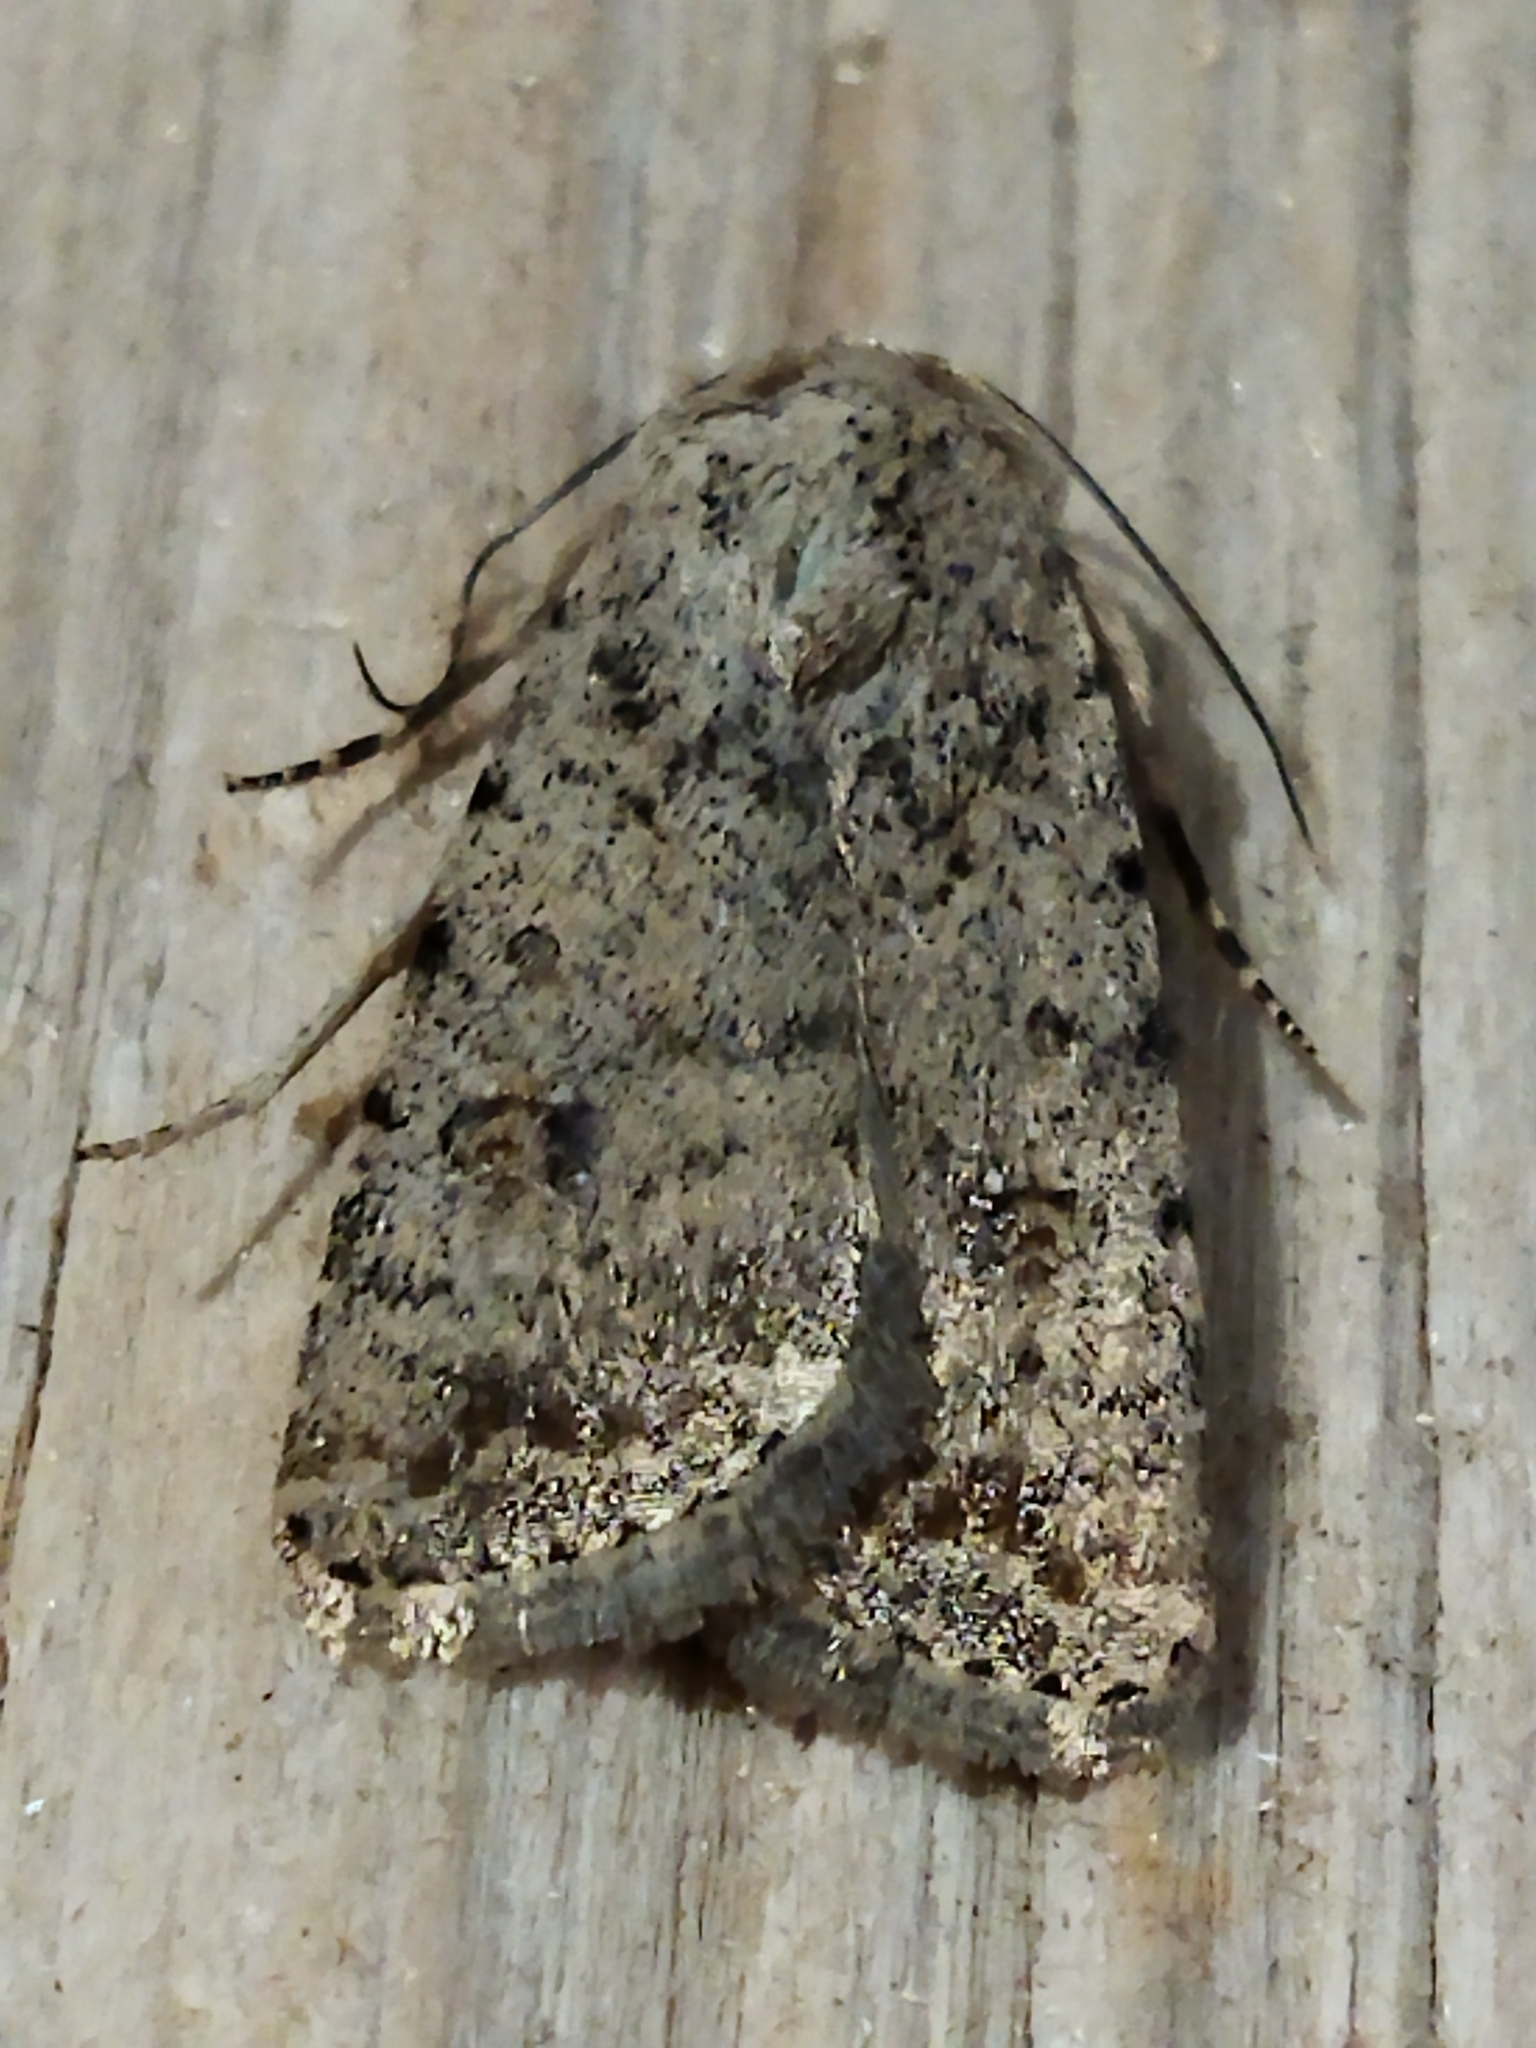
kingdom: Animalia
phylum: Arthropoda
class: Insecta
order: Lepidoptera
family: Noctuidae
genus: Caradrina
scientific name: Caradrina clavipalpis
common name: Pale mottled willow
